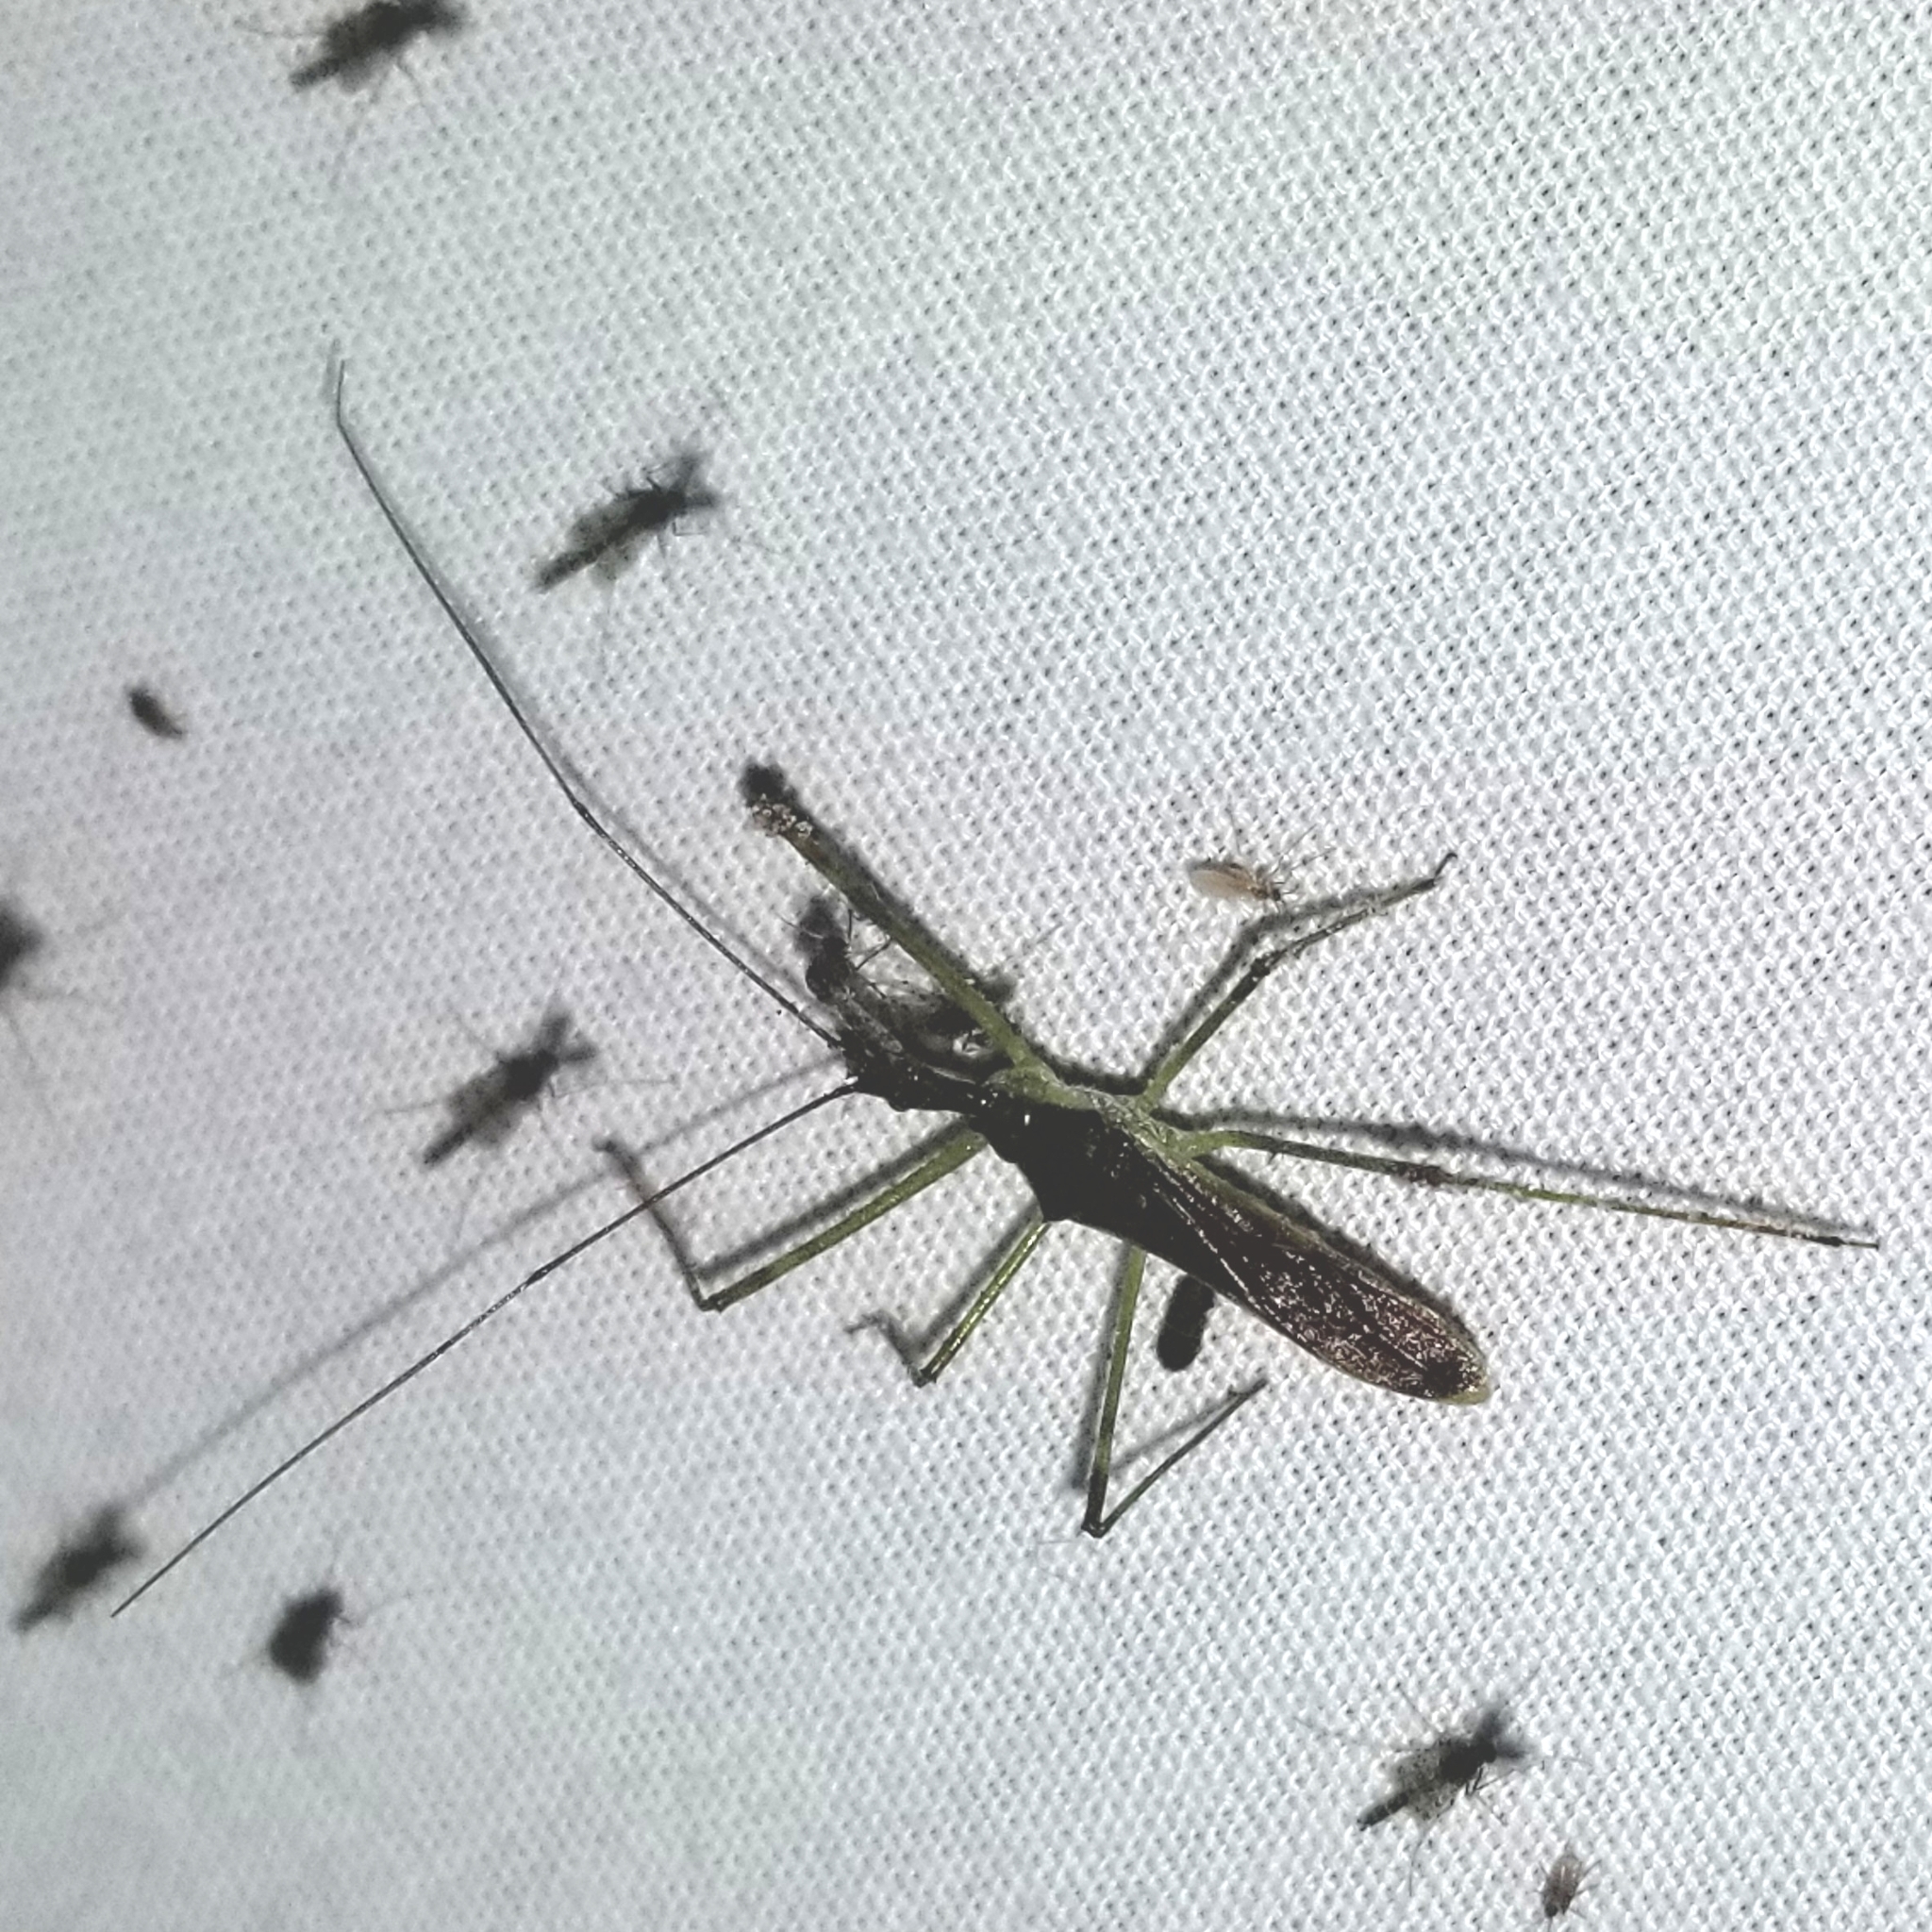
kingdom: Animalia
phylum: Arthropoda
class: Insecta
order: Hemiptera
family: Reduviidae
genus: Zelus
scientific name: Zelus luridus
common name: Pale green assassin bug
